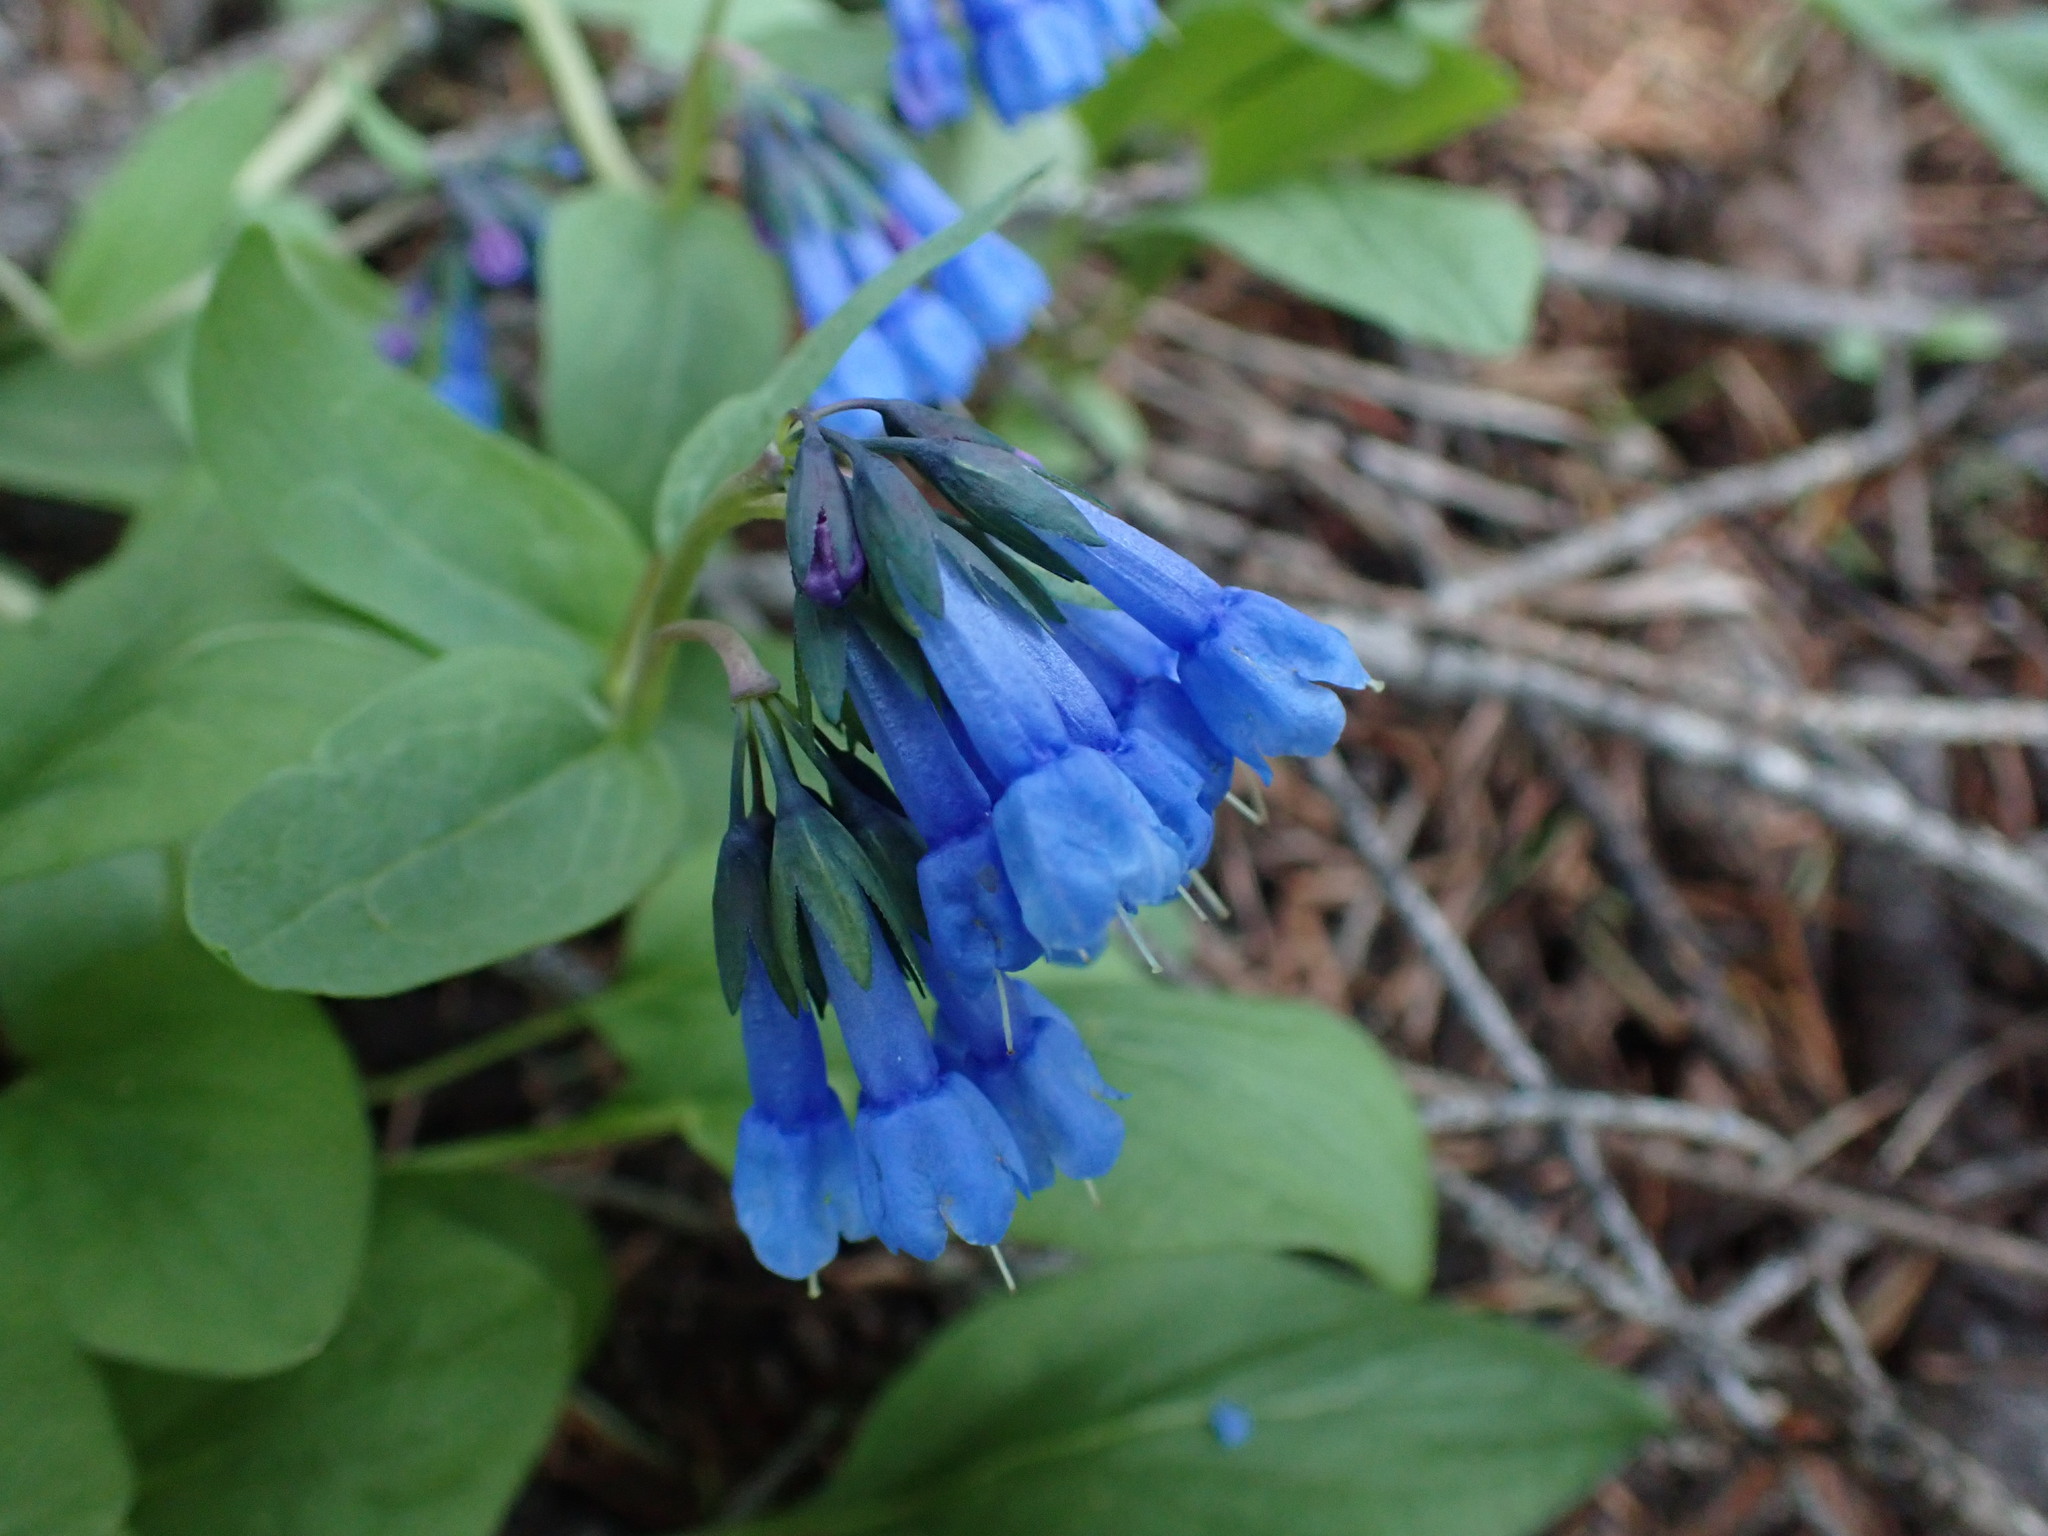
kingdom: Plantae
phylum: Tracheophyta
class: Magnoliopsida
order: Boraginales
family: Boraginaceae
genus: Mertensia
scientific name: Mertensia longiflora
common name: Large-flowered bluebells
